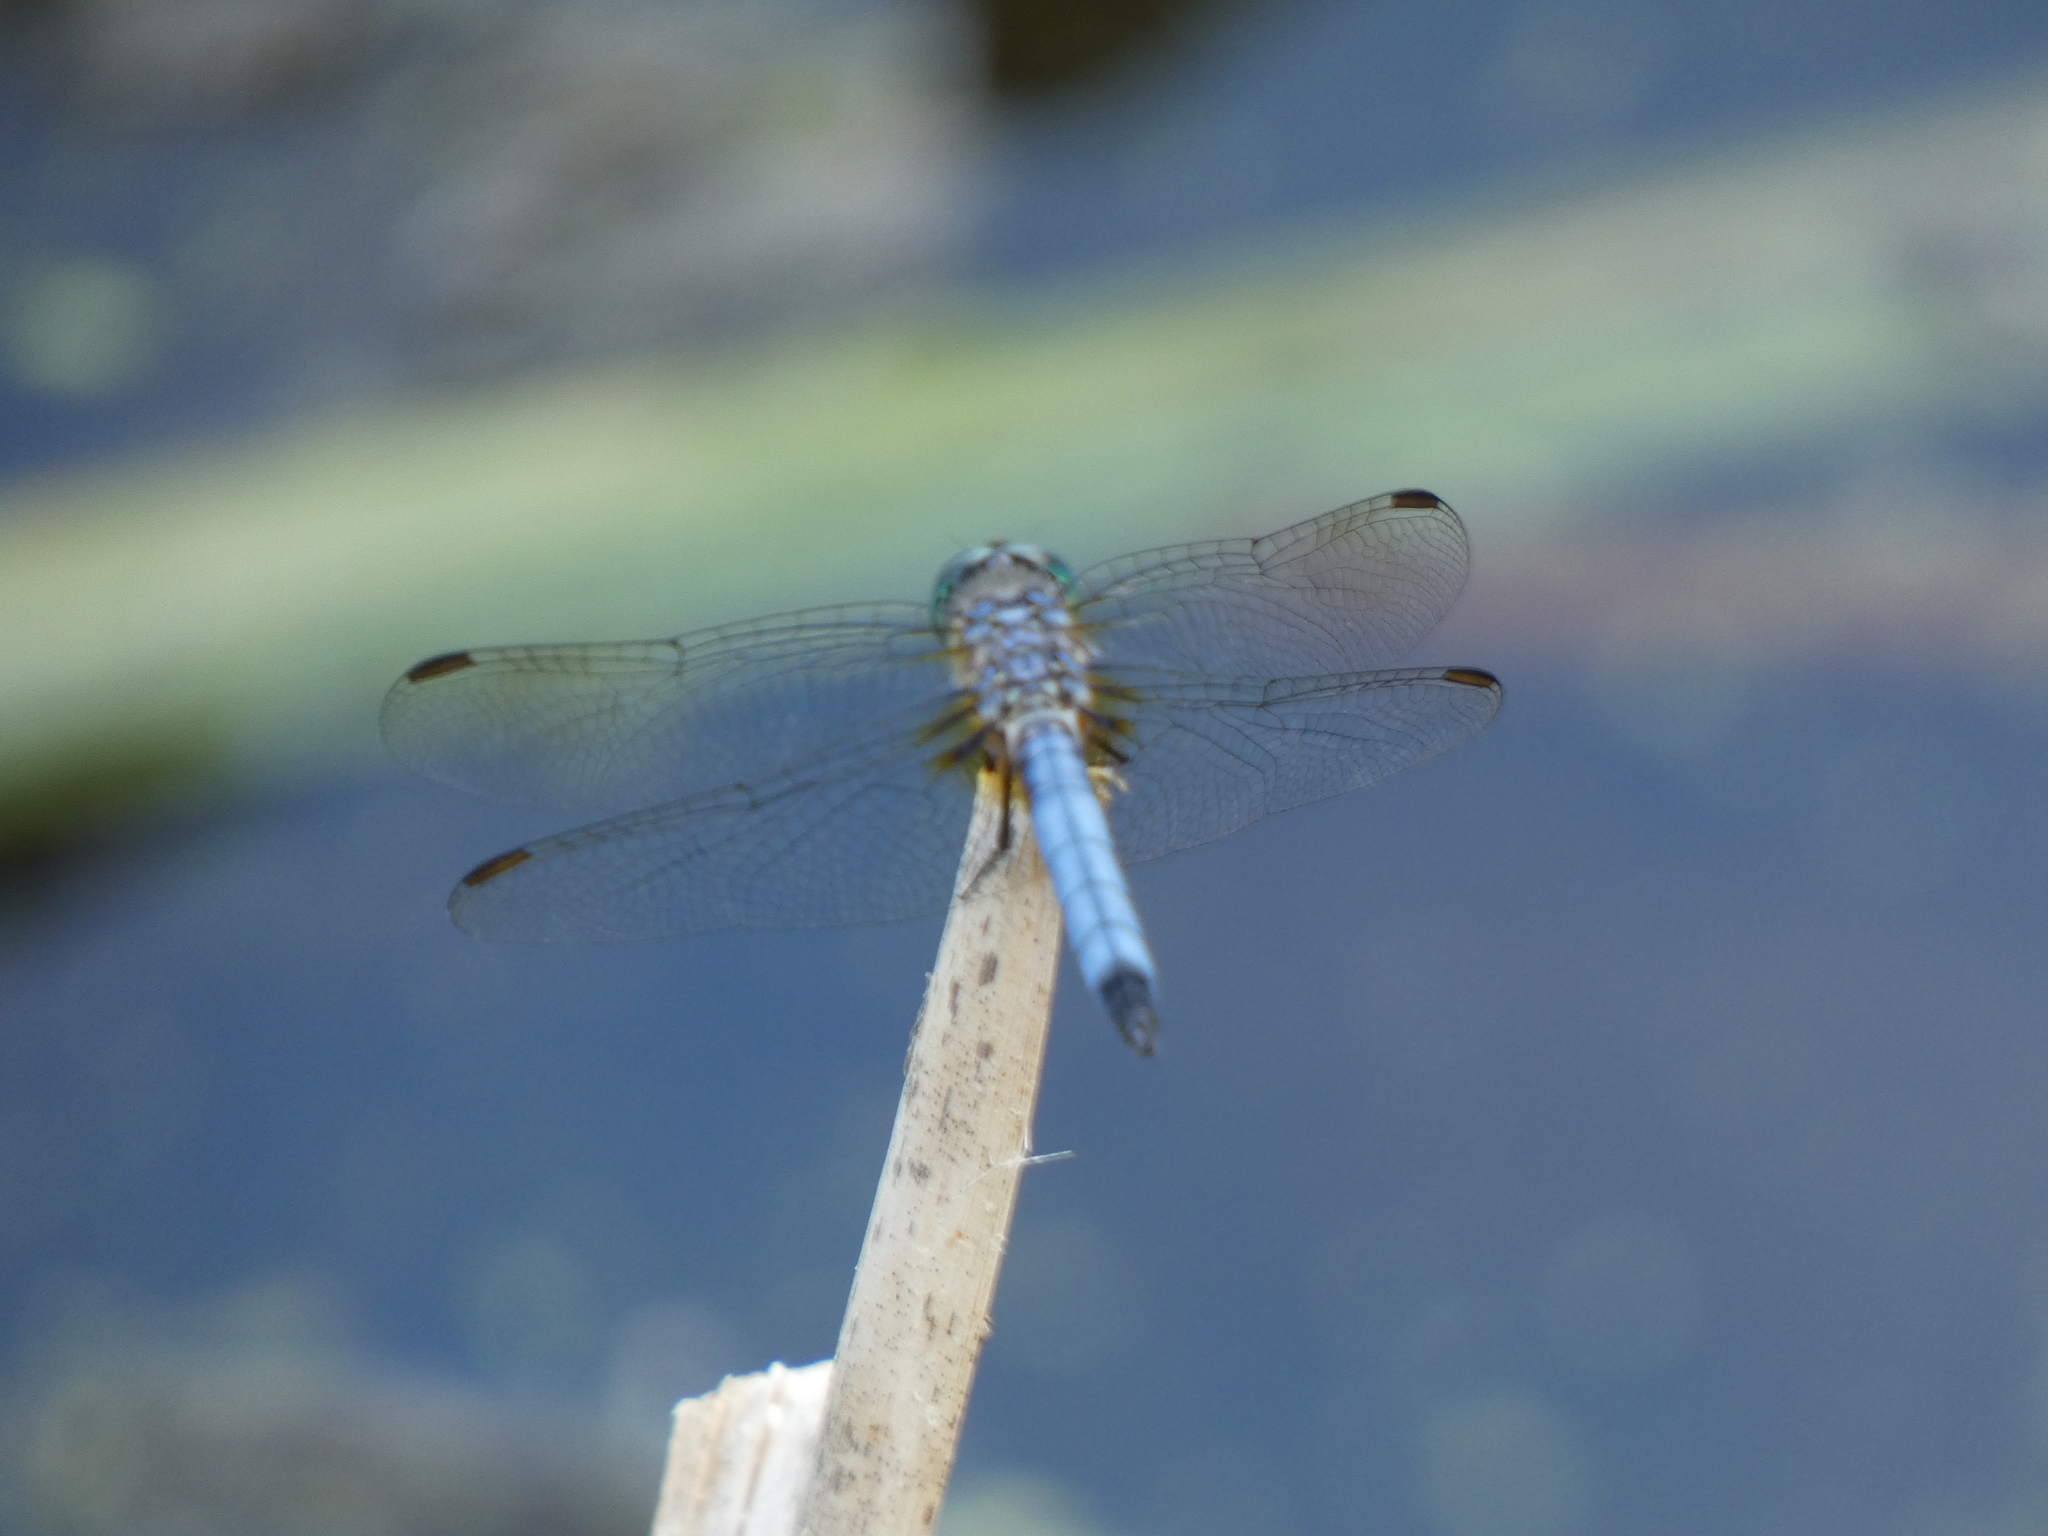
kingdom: Animalia
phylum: Arthropoda
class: Insecta
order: Odonata
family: Libellulidae
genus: Pachydiplax
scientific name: Pachydiplax longipennis
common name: Blue dasher
